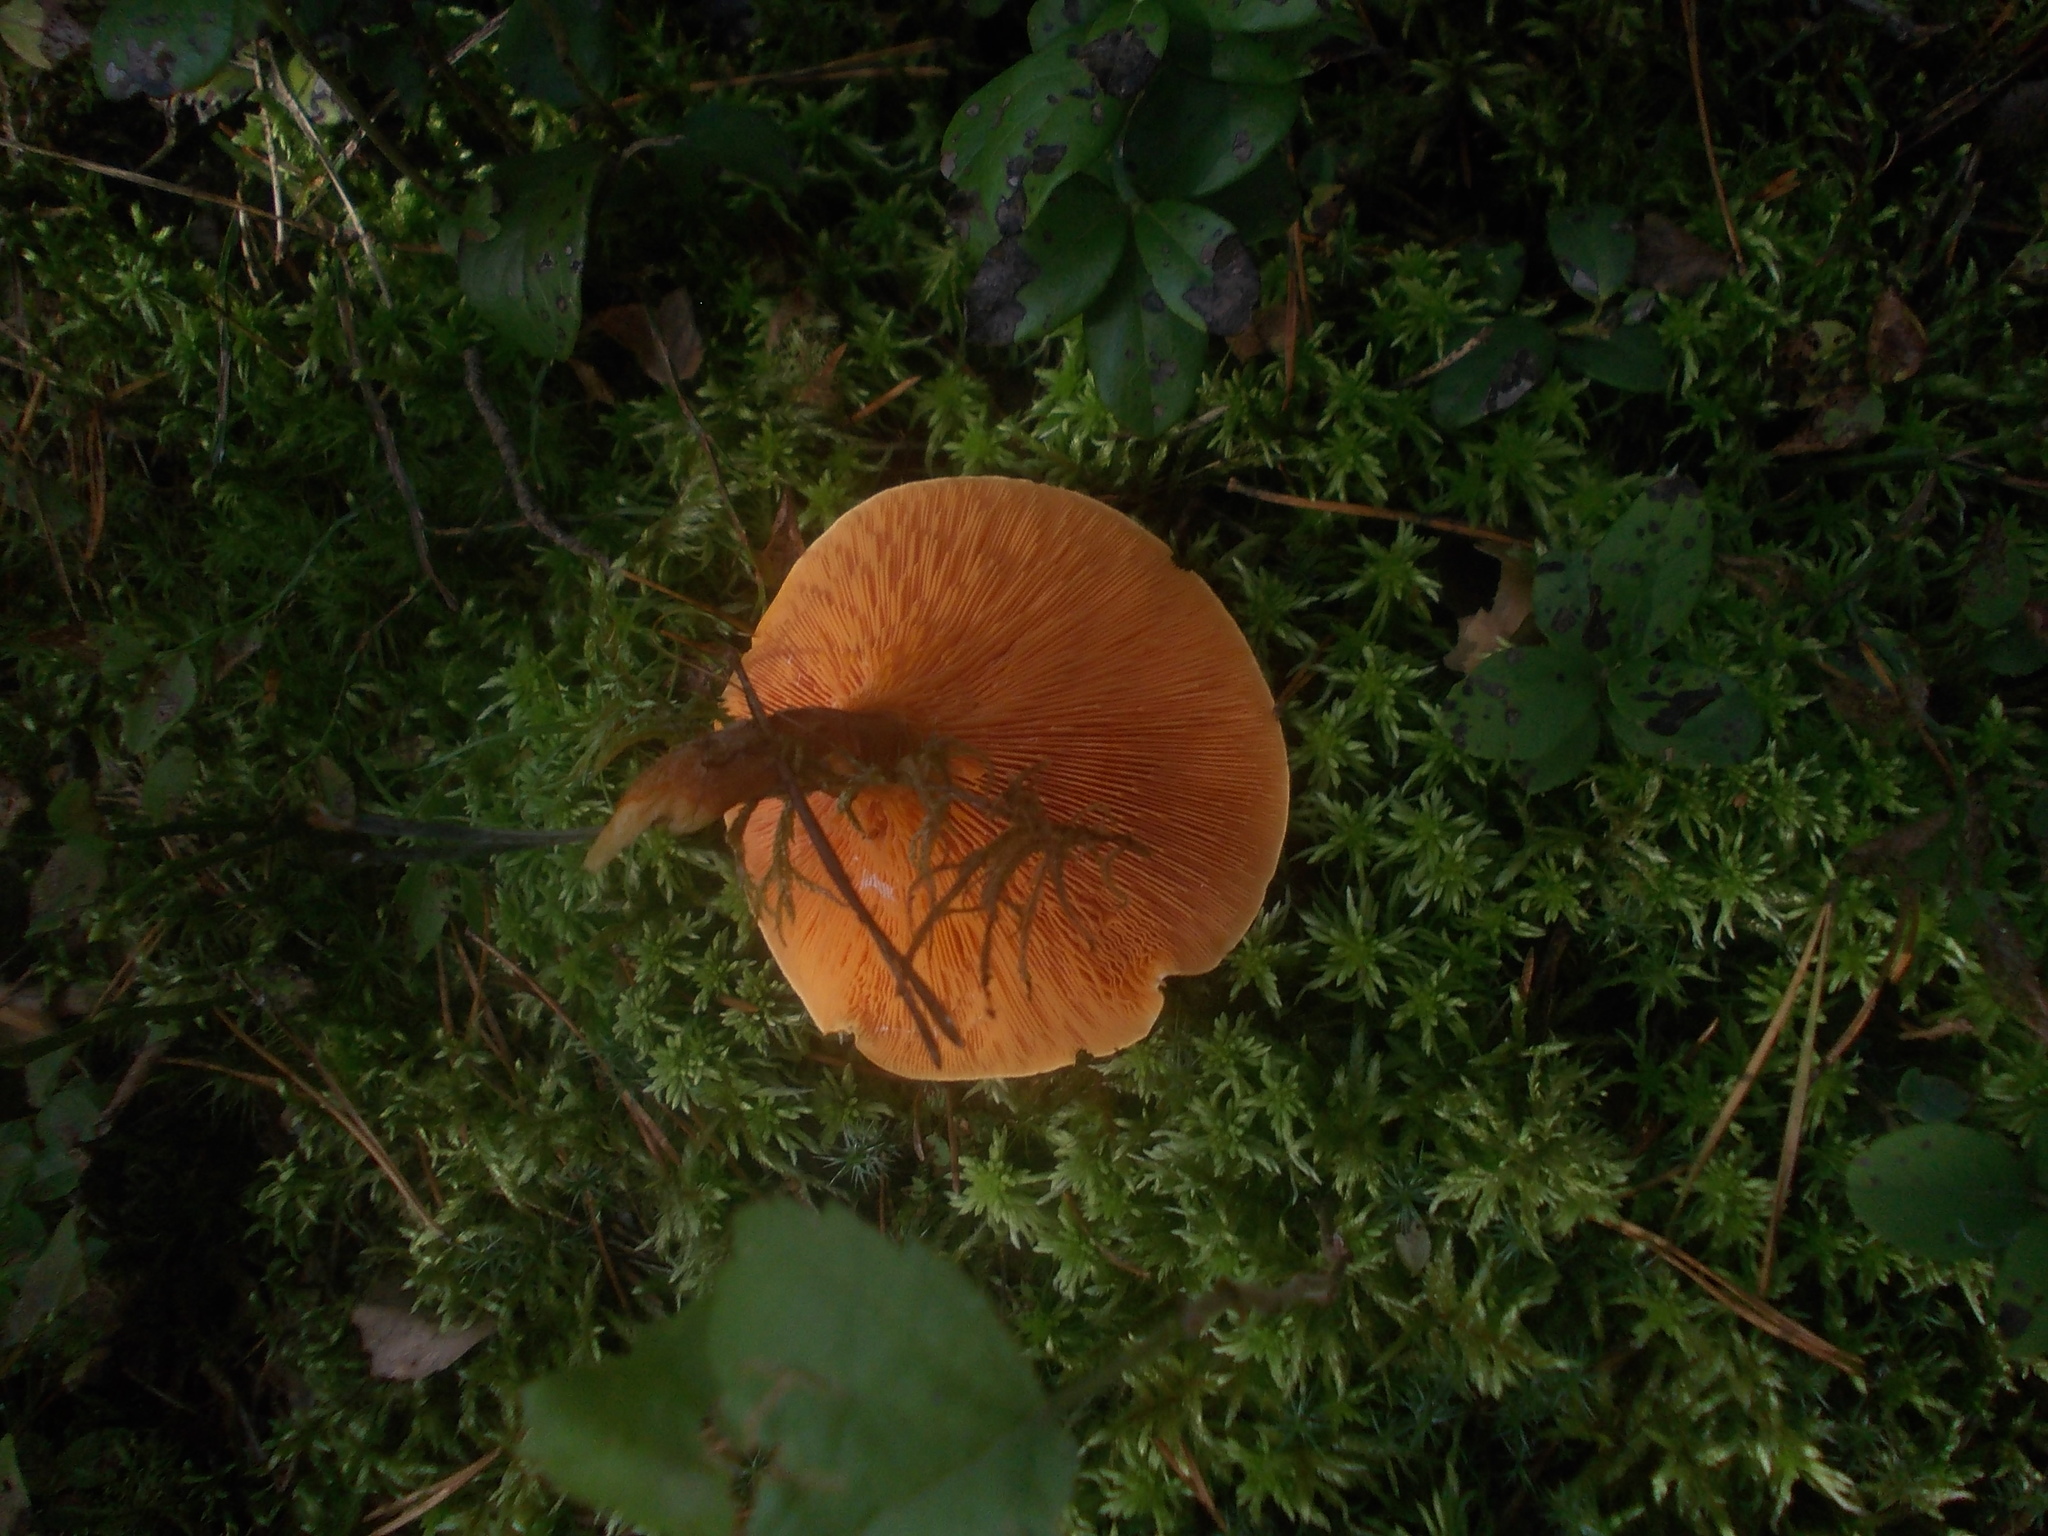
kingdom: Fungi
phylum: Basidiomycota
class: Agaricomycetes
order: Boletales
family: Hygrophoropsidaceae
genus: Hygrophoropsis
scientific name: Hygrophoropsis rufa
